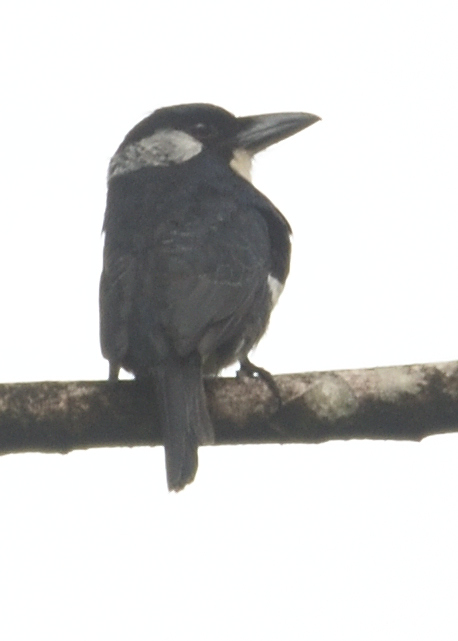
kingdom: Animalia
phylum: Chordata
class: Aves
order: Piciformes
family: Bucconidae
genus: Notharchus
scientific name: Notharchus pectoralis
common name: Black-breasted puffbird
